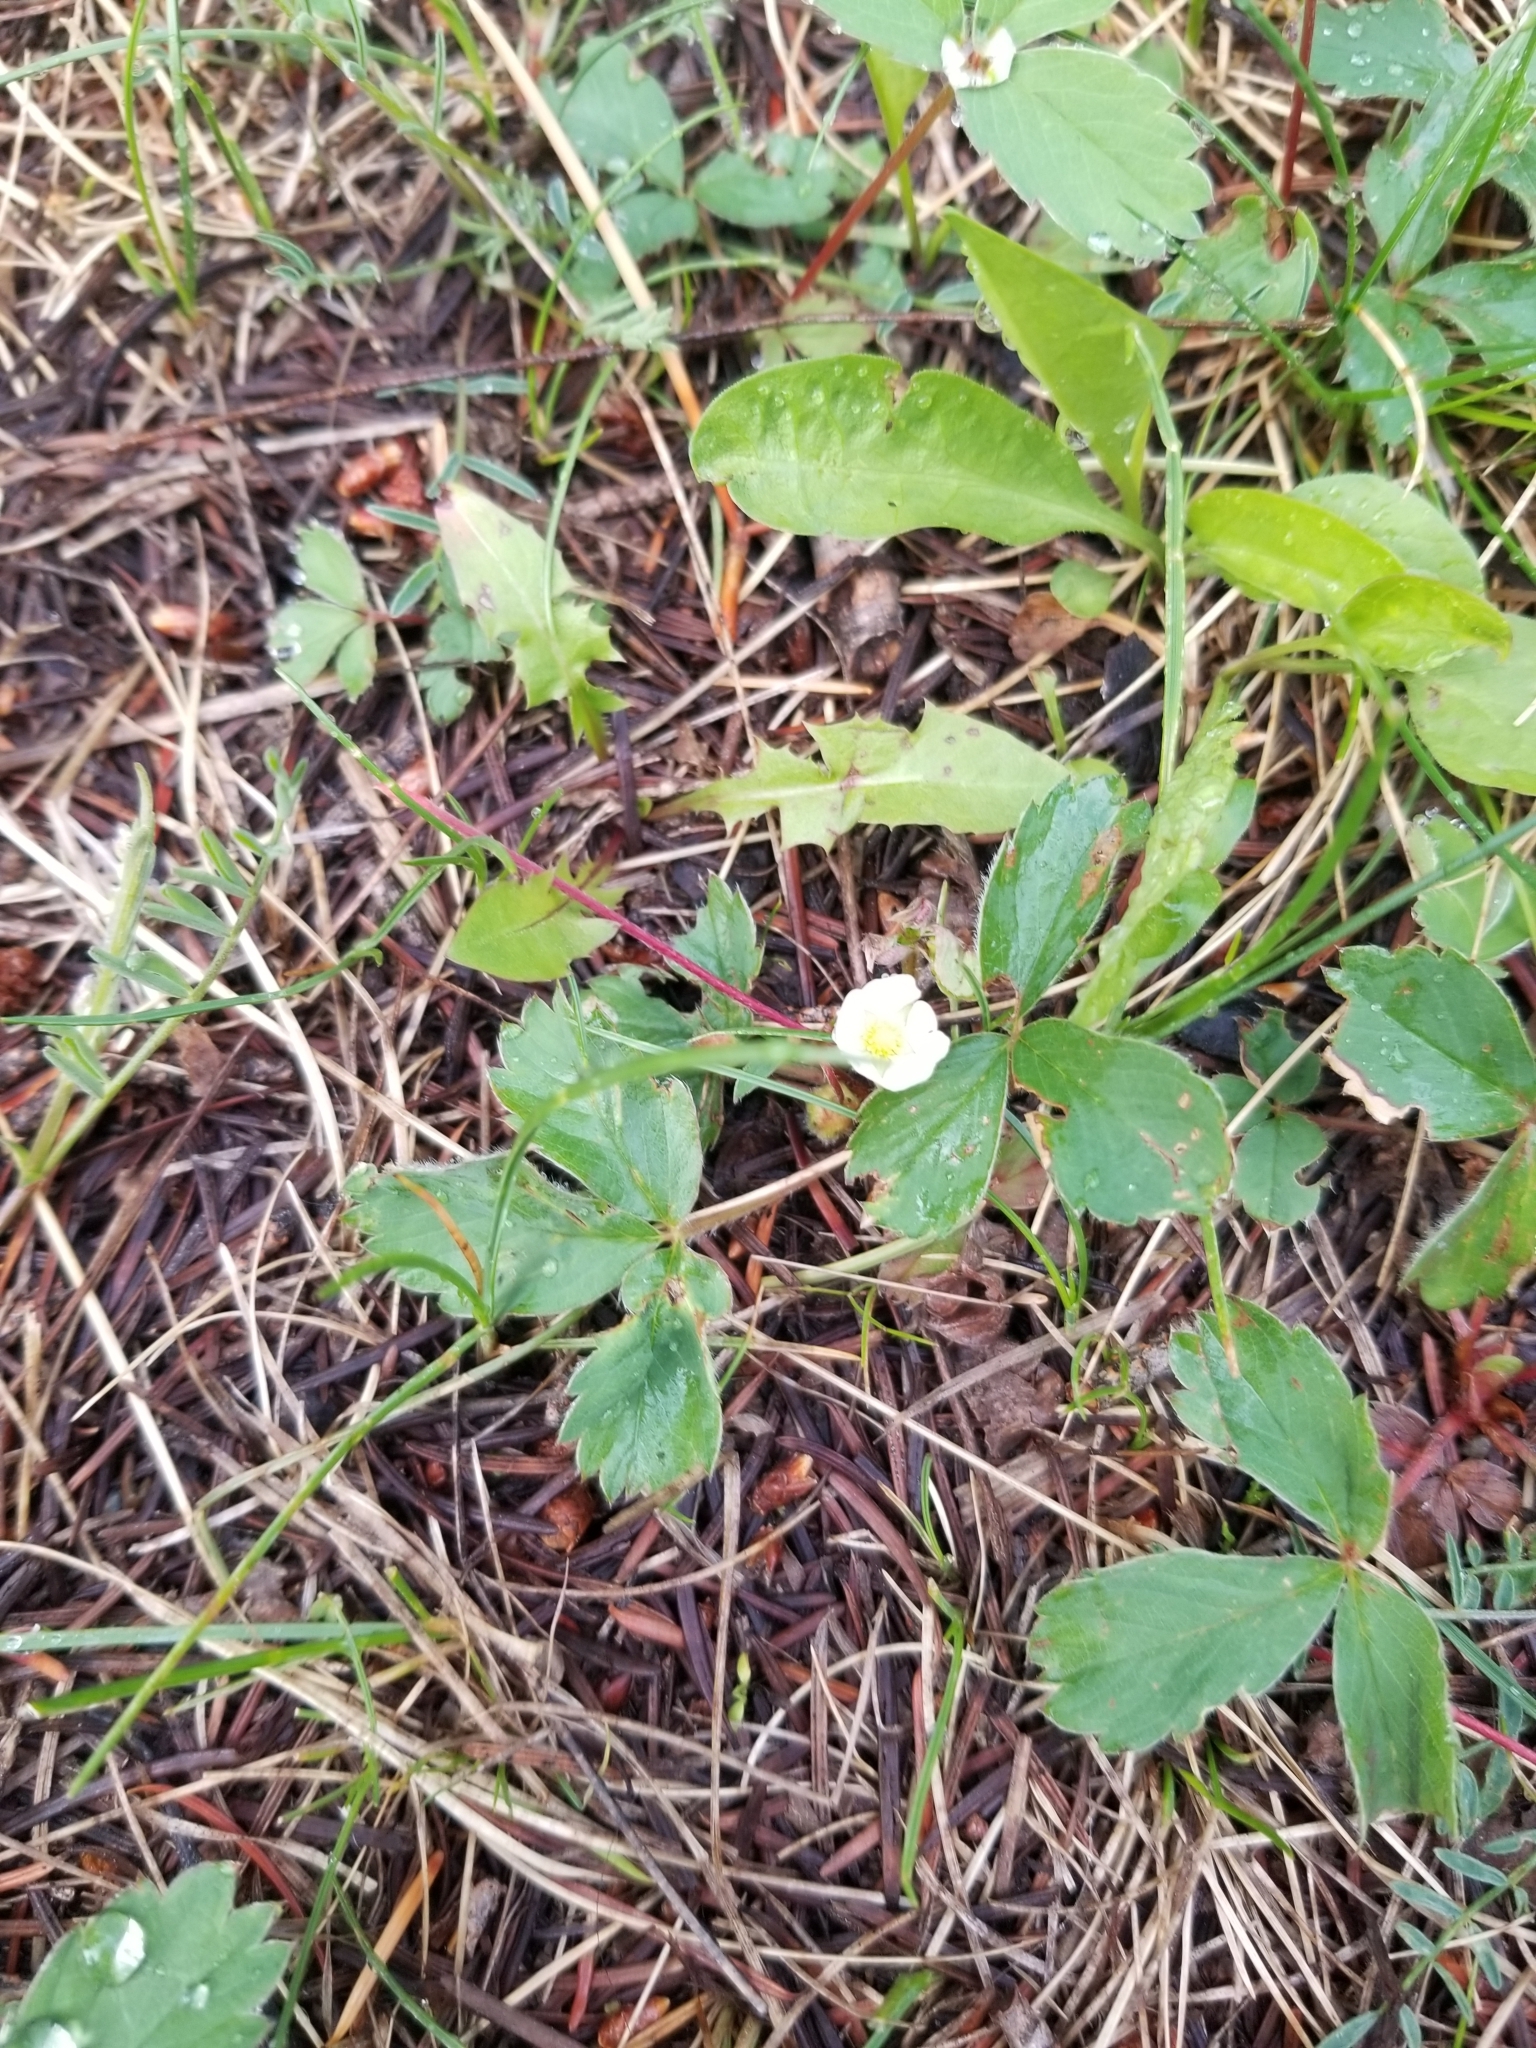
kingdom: Plantae
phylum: Tracheophyta
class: Magnoliopsida
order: Rosales
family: Rosaceae
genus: Fragaria
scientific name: Fragaria virginiana
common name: Thickleaved wild strawberry
